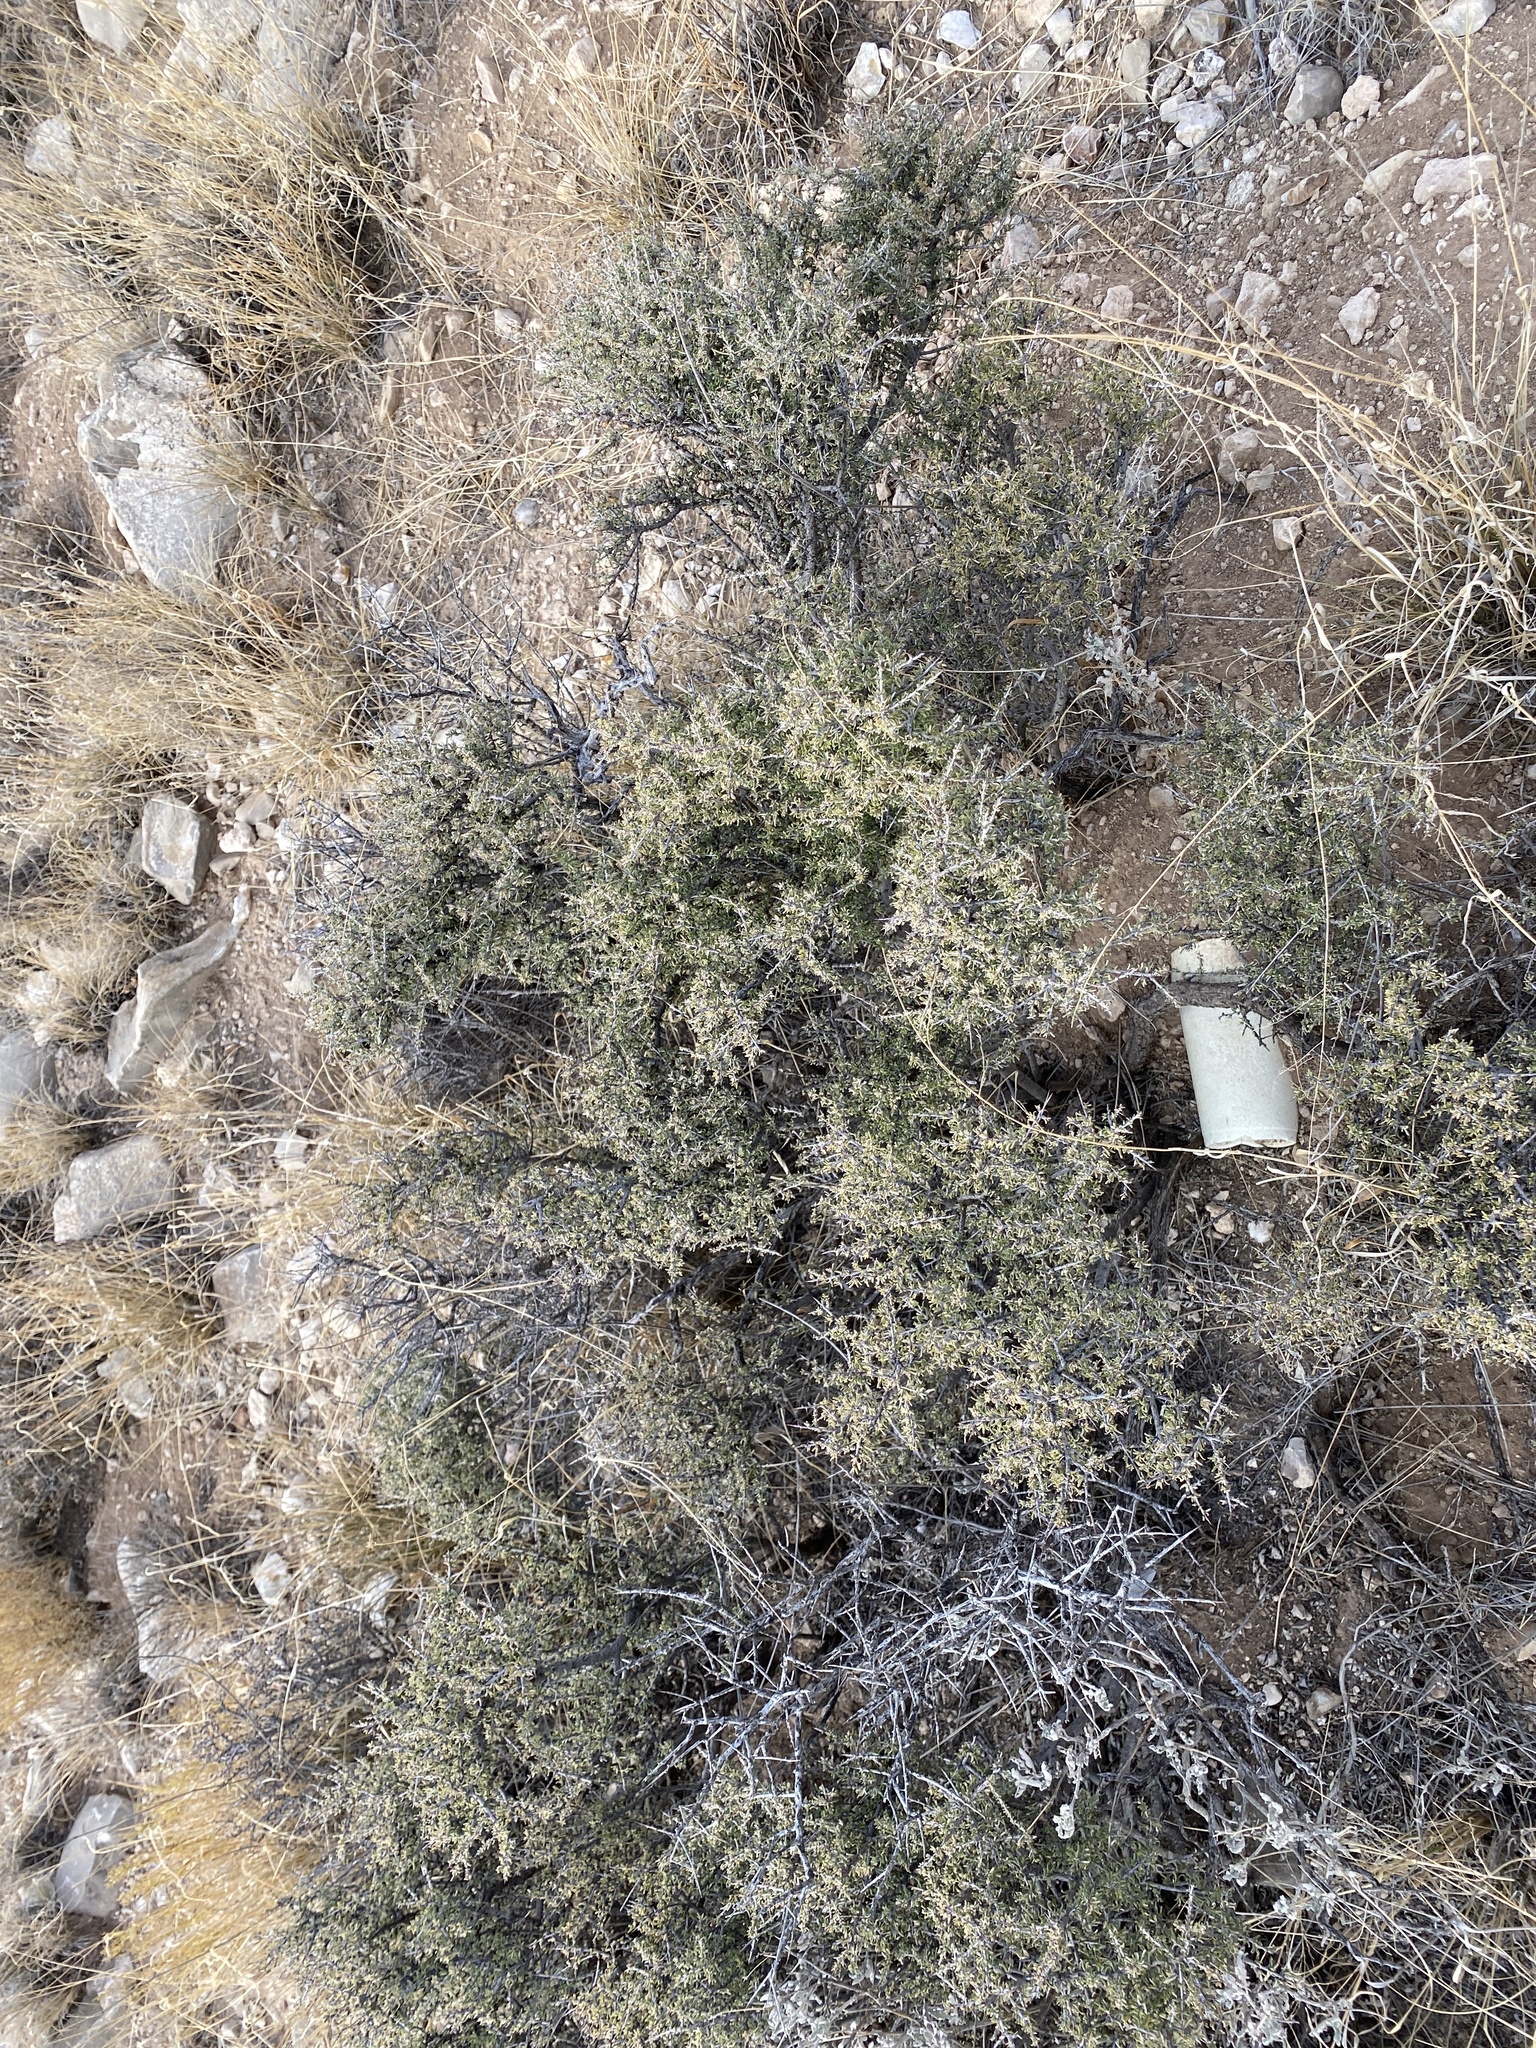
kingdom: Plantae
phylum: Tracheophyta
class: Magnoliopsida
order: Rosales
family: Rhamnaceae
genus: Condalia
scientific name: Condalia ericoides
